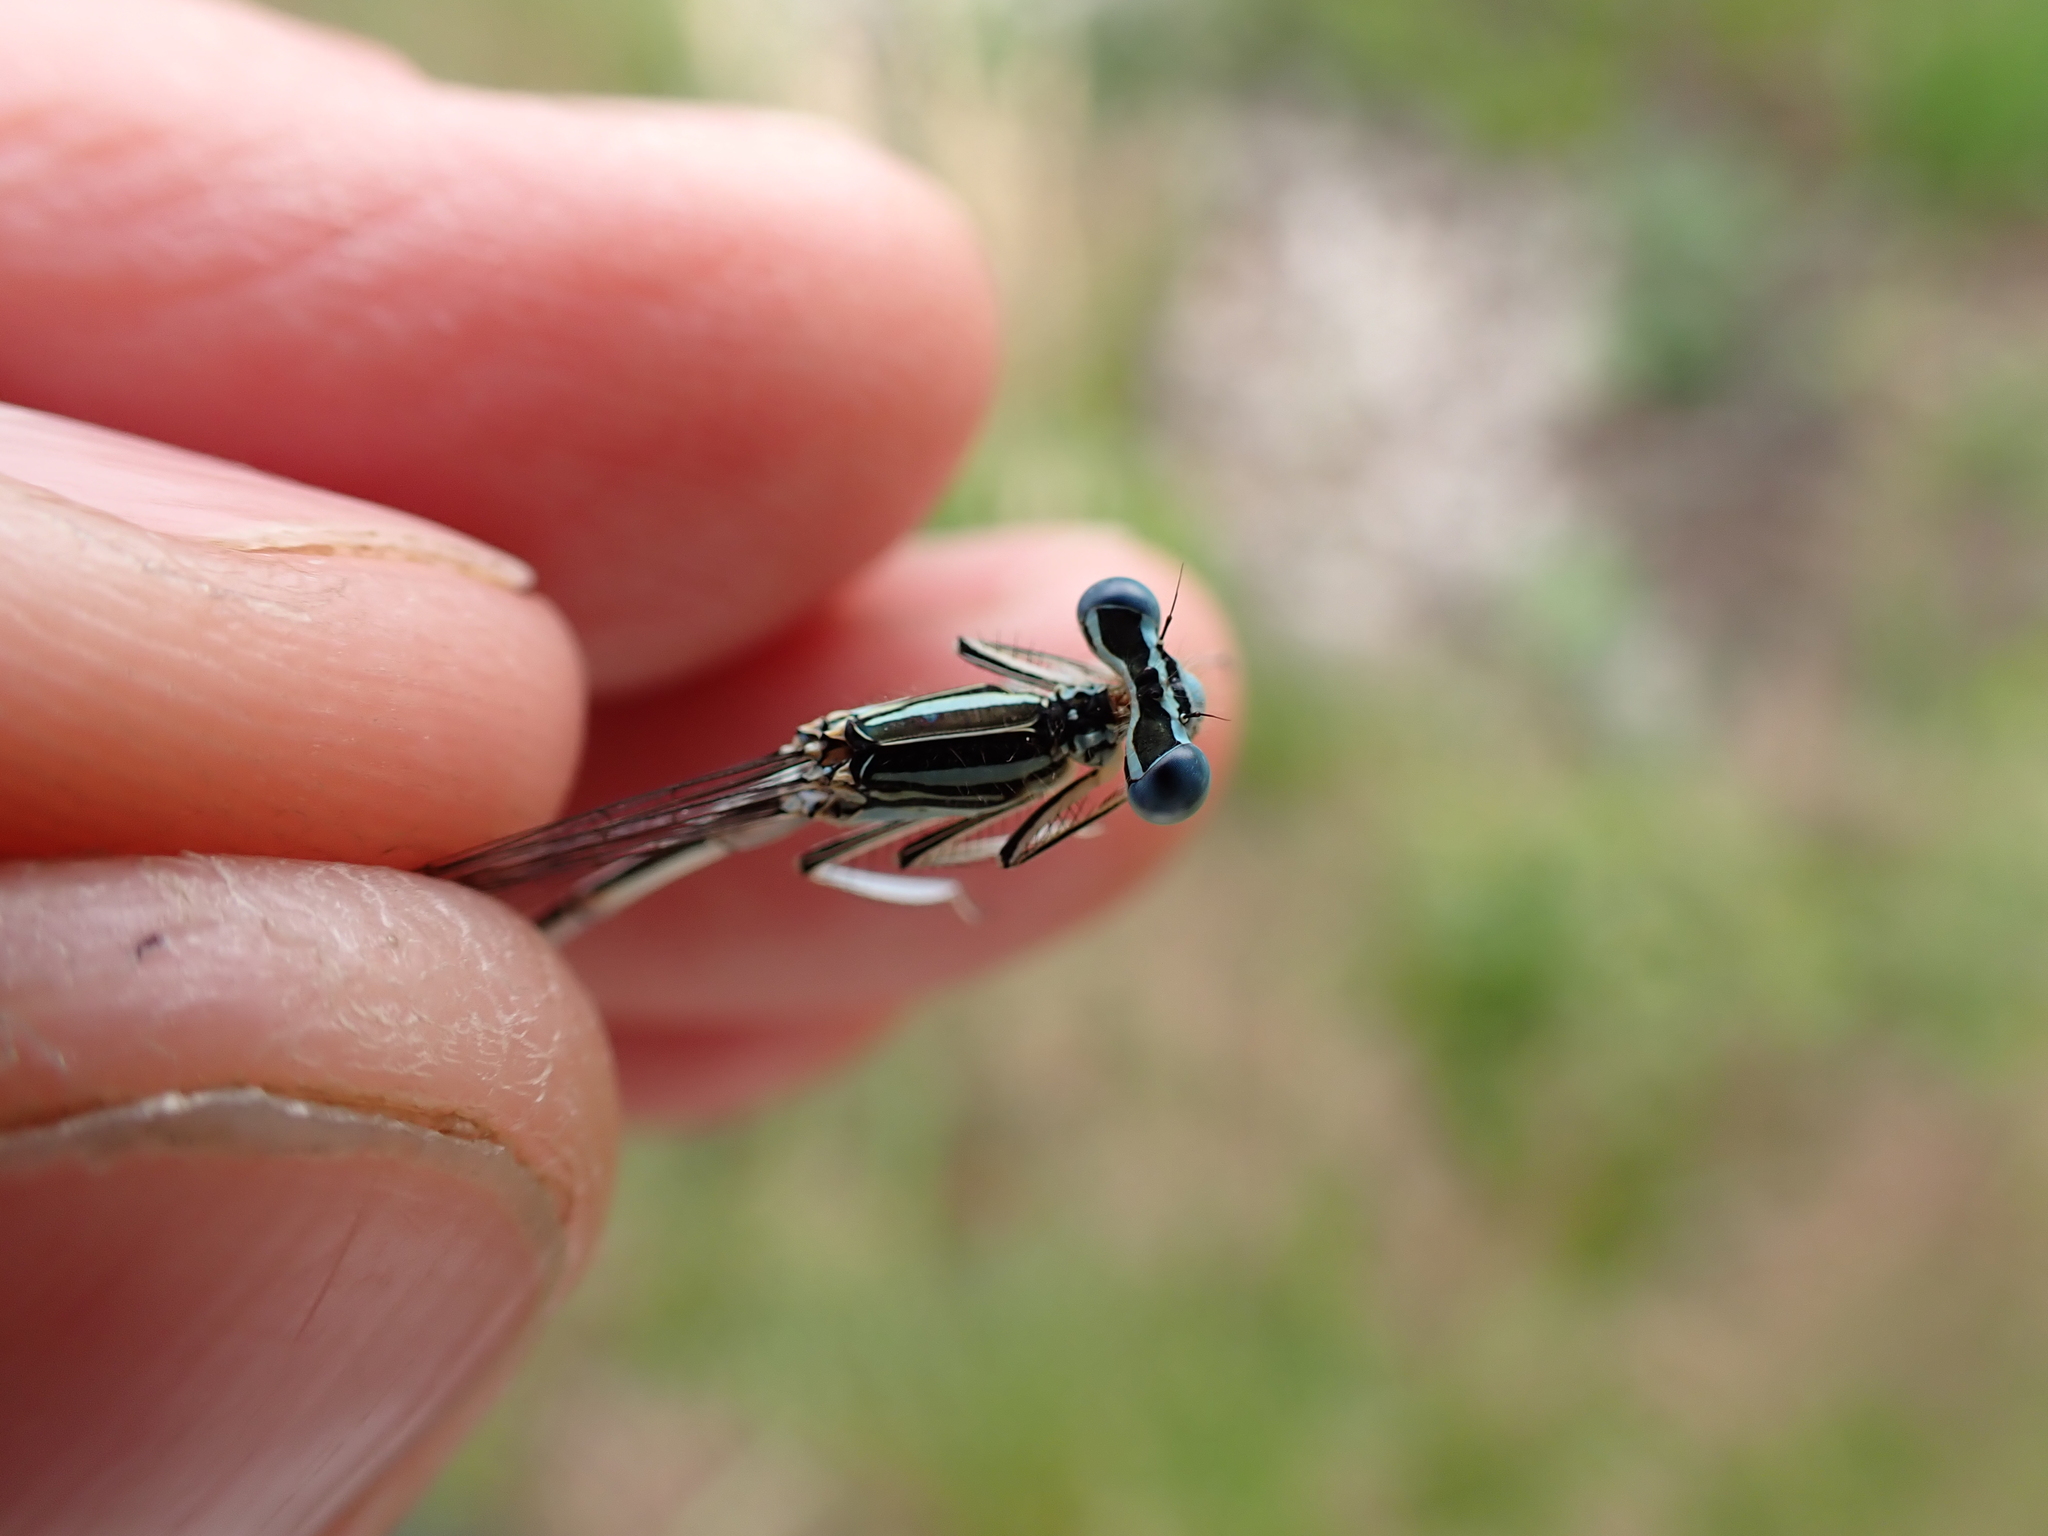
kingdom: Animalia
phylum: Arthropoda
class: Insecta
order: Odonata
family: Platycnemididae
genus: Platycnemis
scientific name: Platycnemis pennipes
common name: White-legged damselfly
